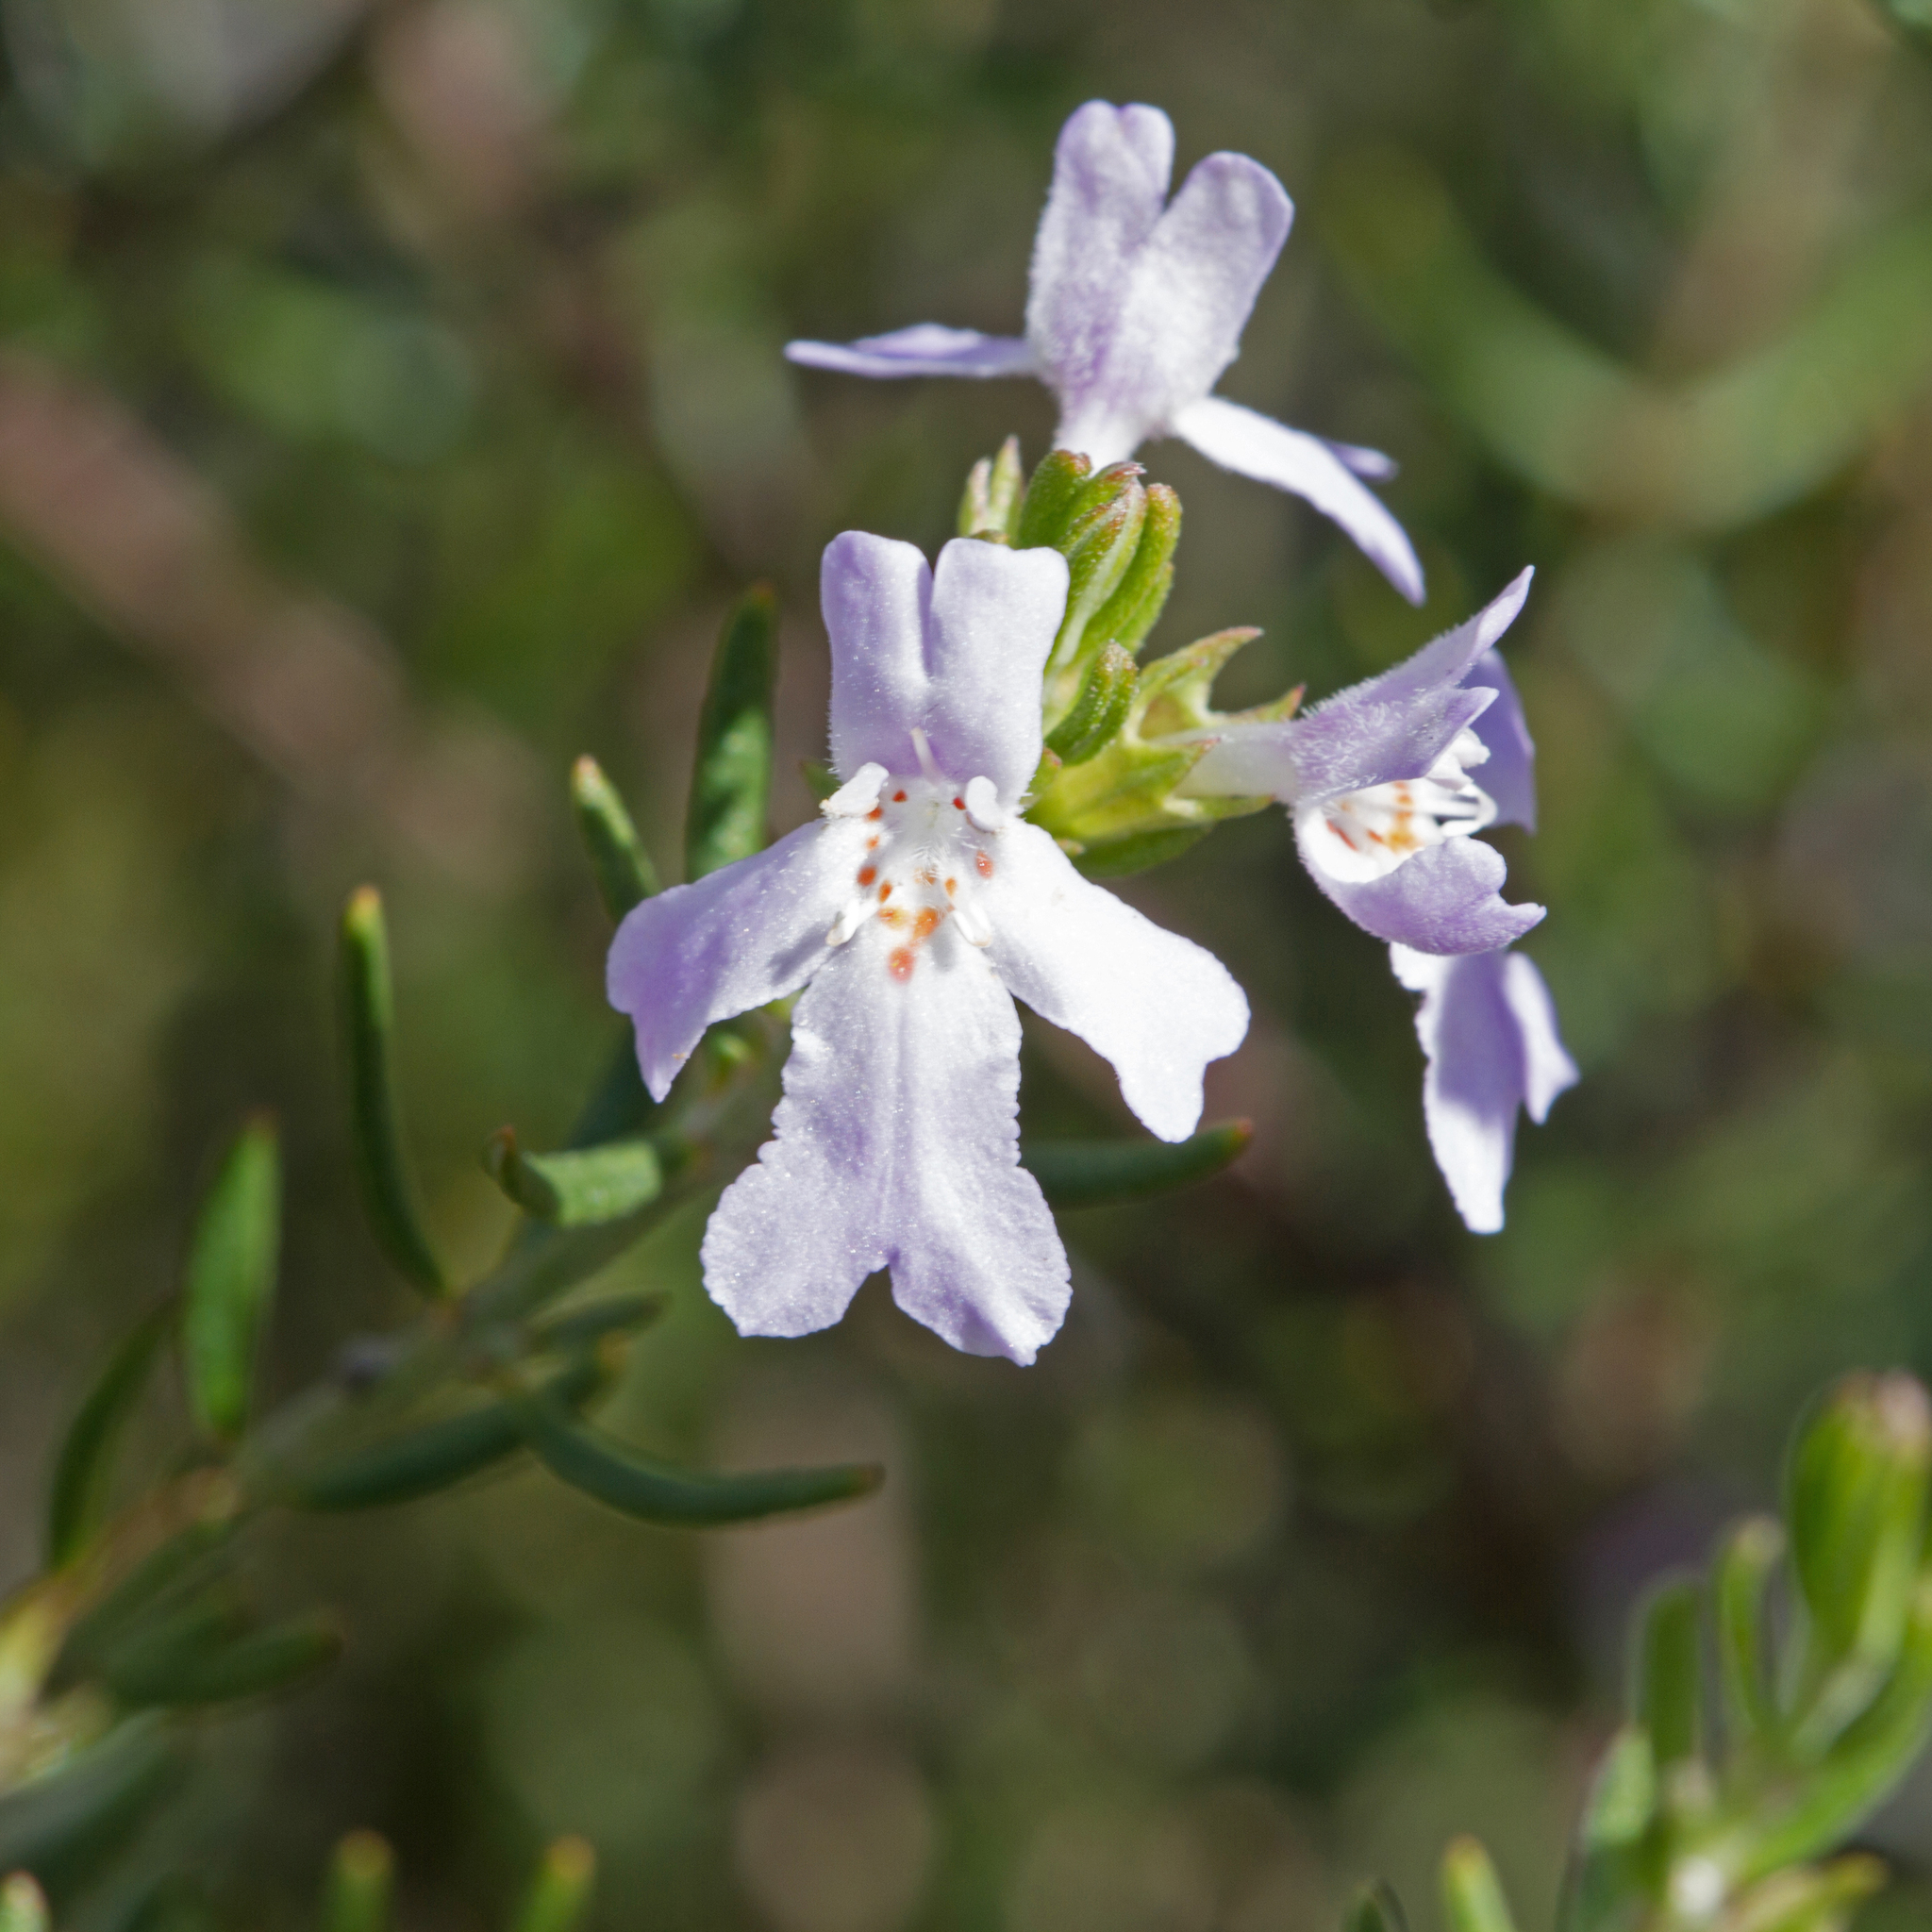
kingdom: Plantae
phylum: Tracheophyta
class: Magnoliopsida
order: Lamiales
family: Lamiaceae
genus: Westringia
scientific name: Westringia eremicola
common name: Slender western-rosemary
